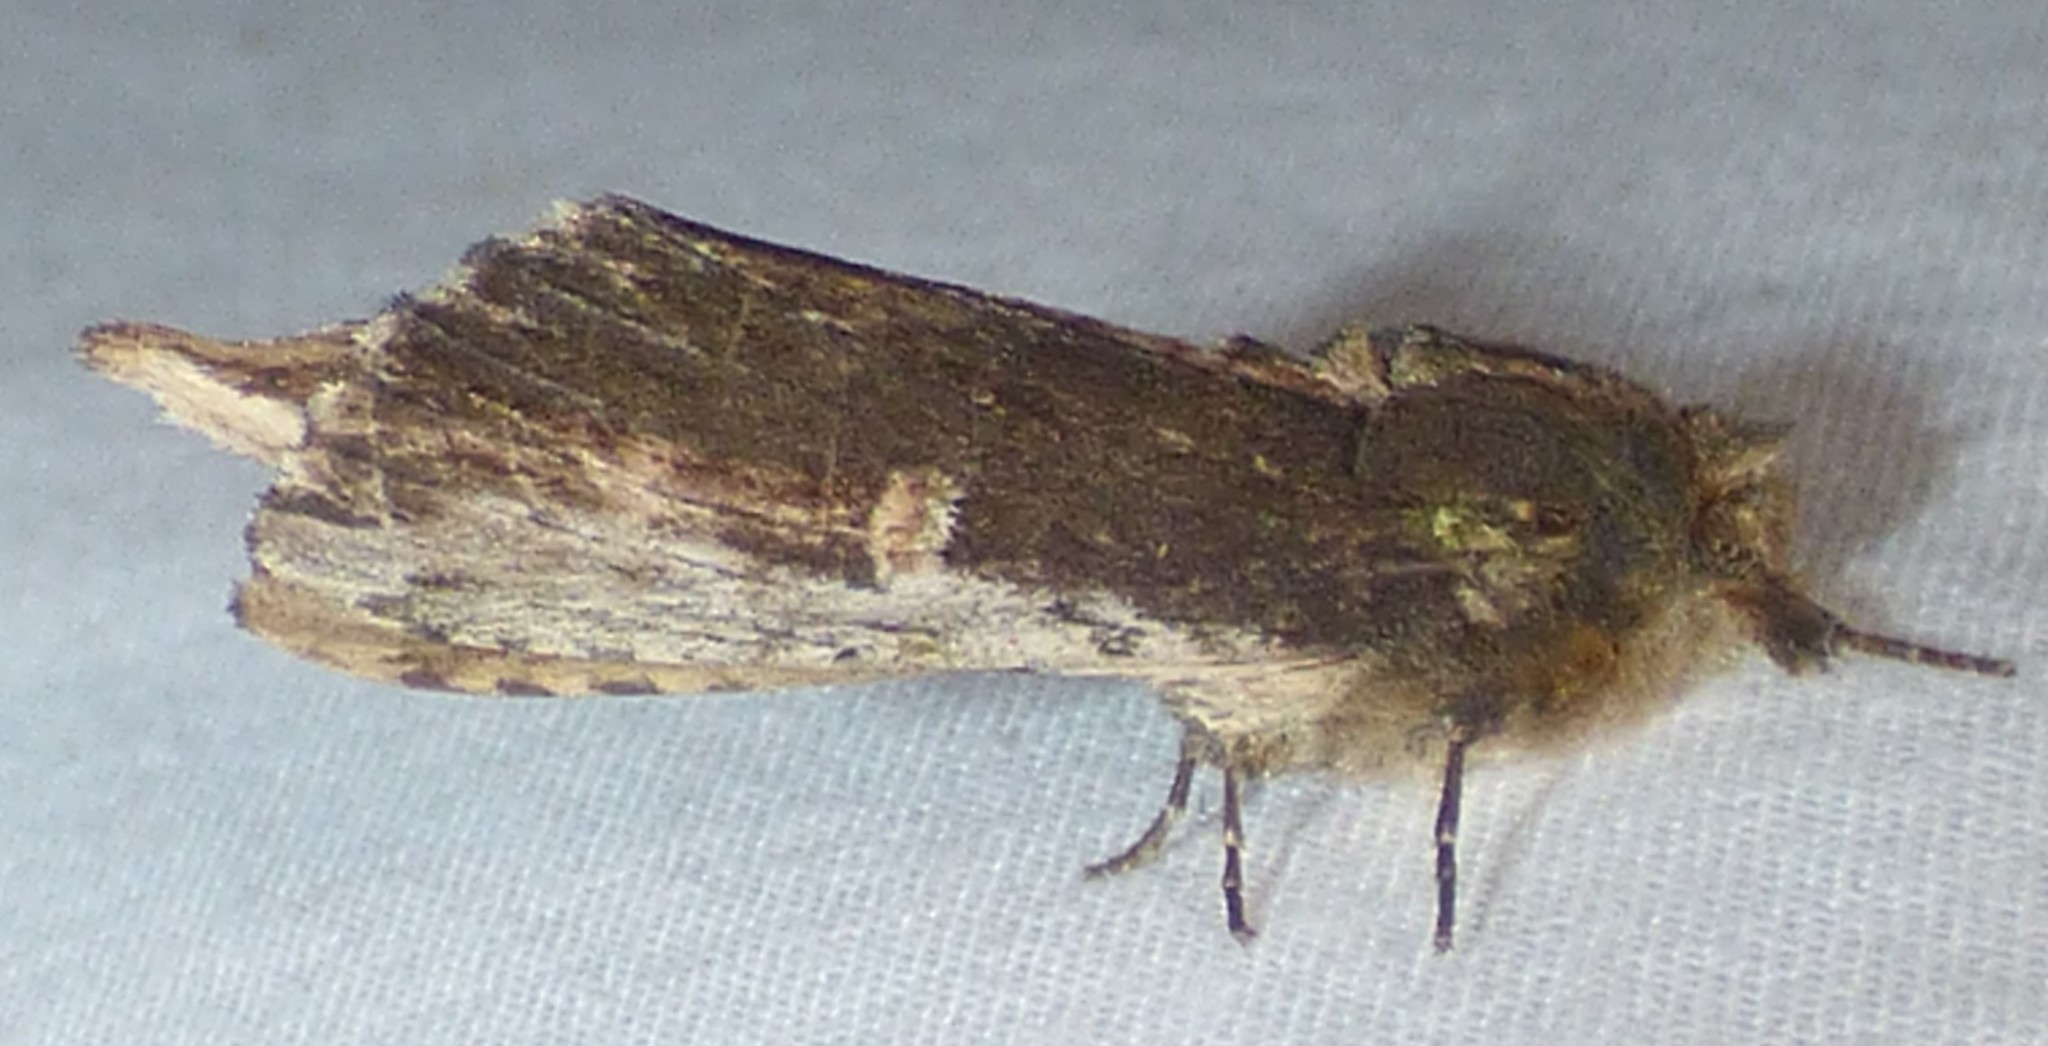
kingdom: Animalia
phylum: Arthropoda
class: Insecta
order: Lepidoptera
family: Notodontidae
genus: Schizura
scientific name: Schizura ipomaeae
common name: Morning-glory prominent
